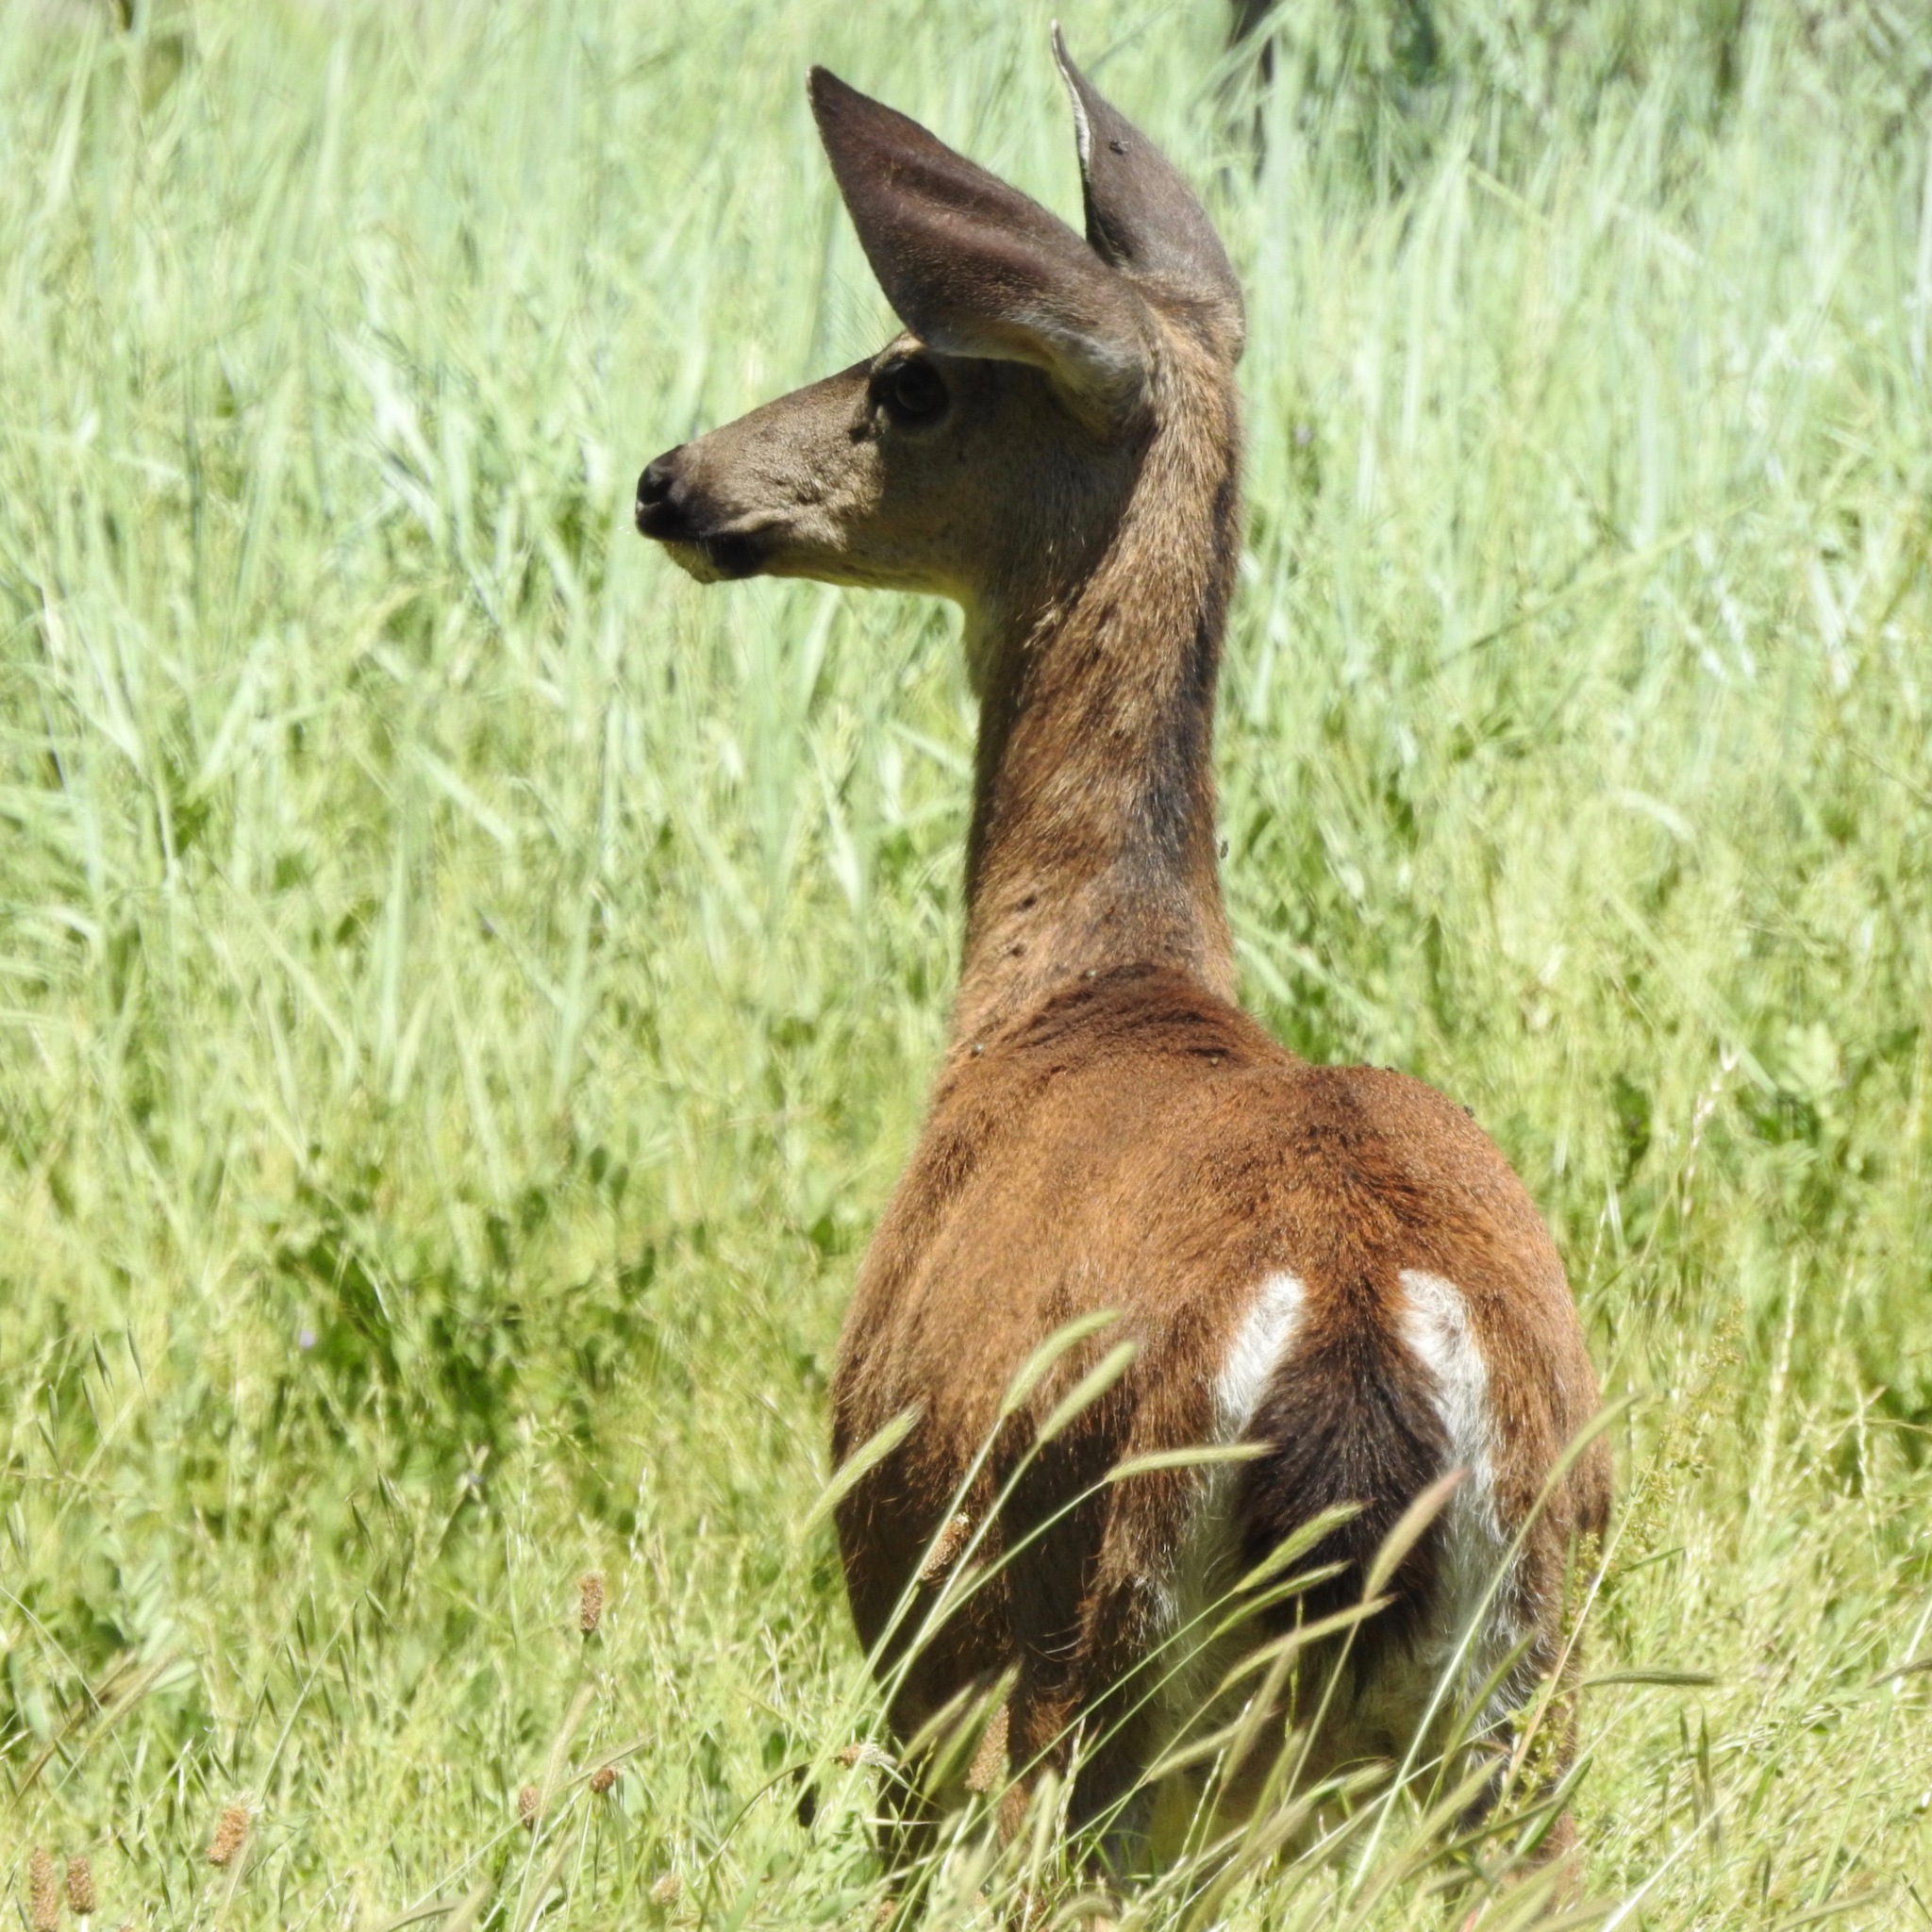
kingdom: Animalia
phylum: Chordata
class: Mammalia
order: Artiodactyla
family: Cervidae
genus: Odocoileus
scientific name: Odocoileus hemionus
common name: Mule deer
